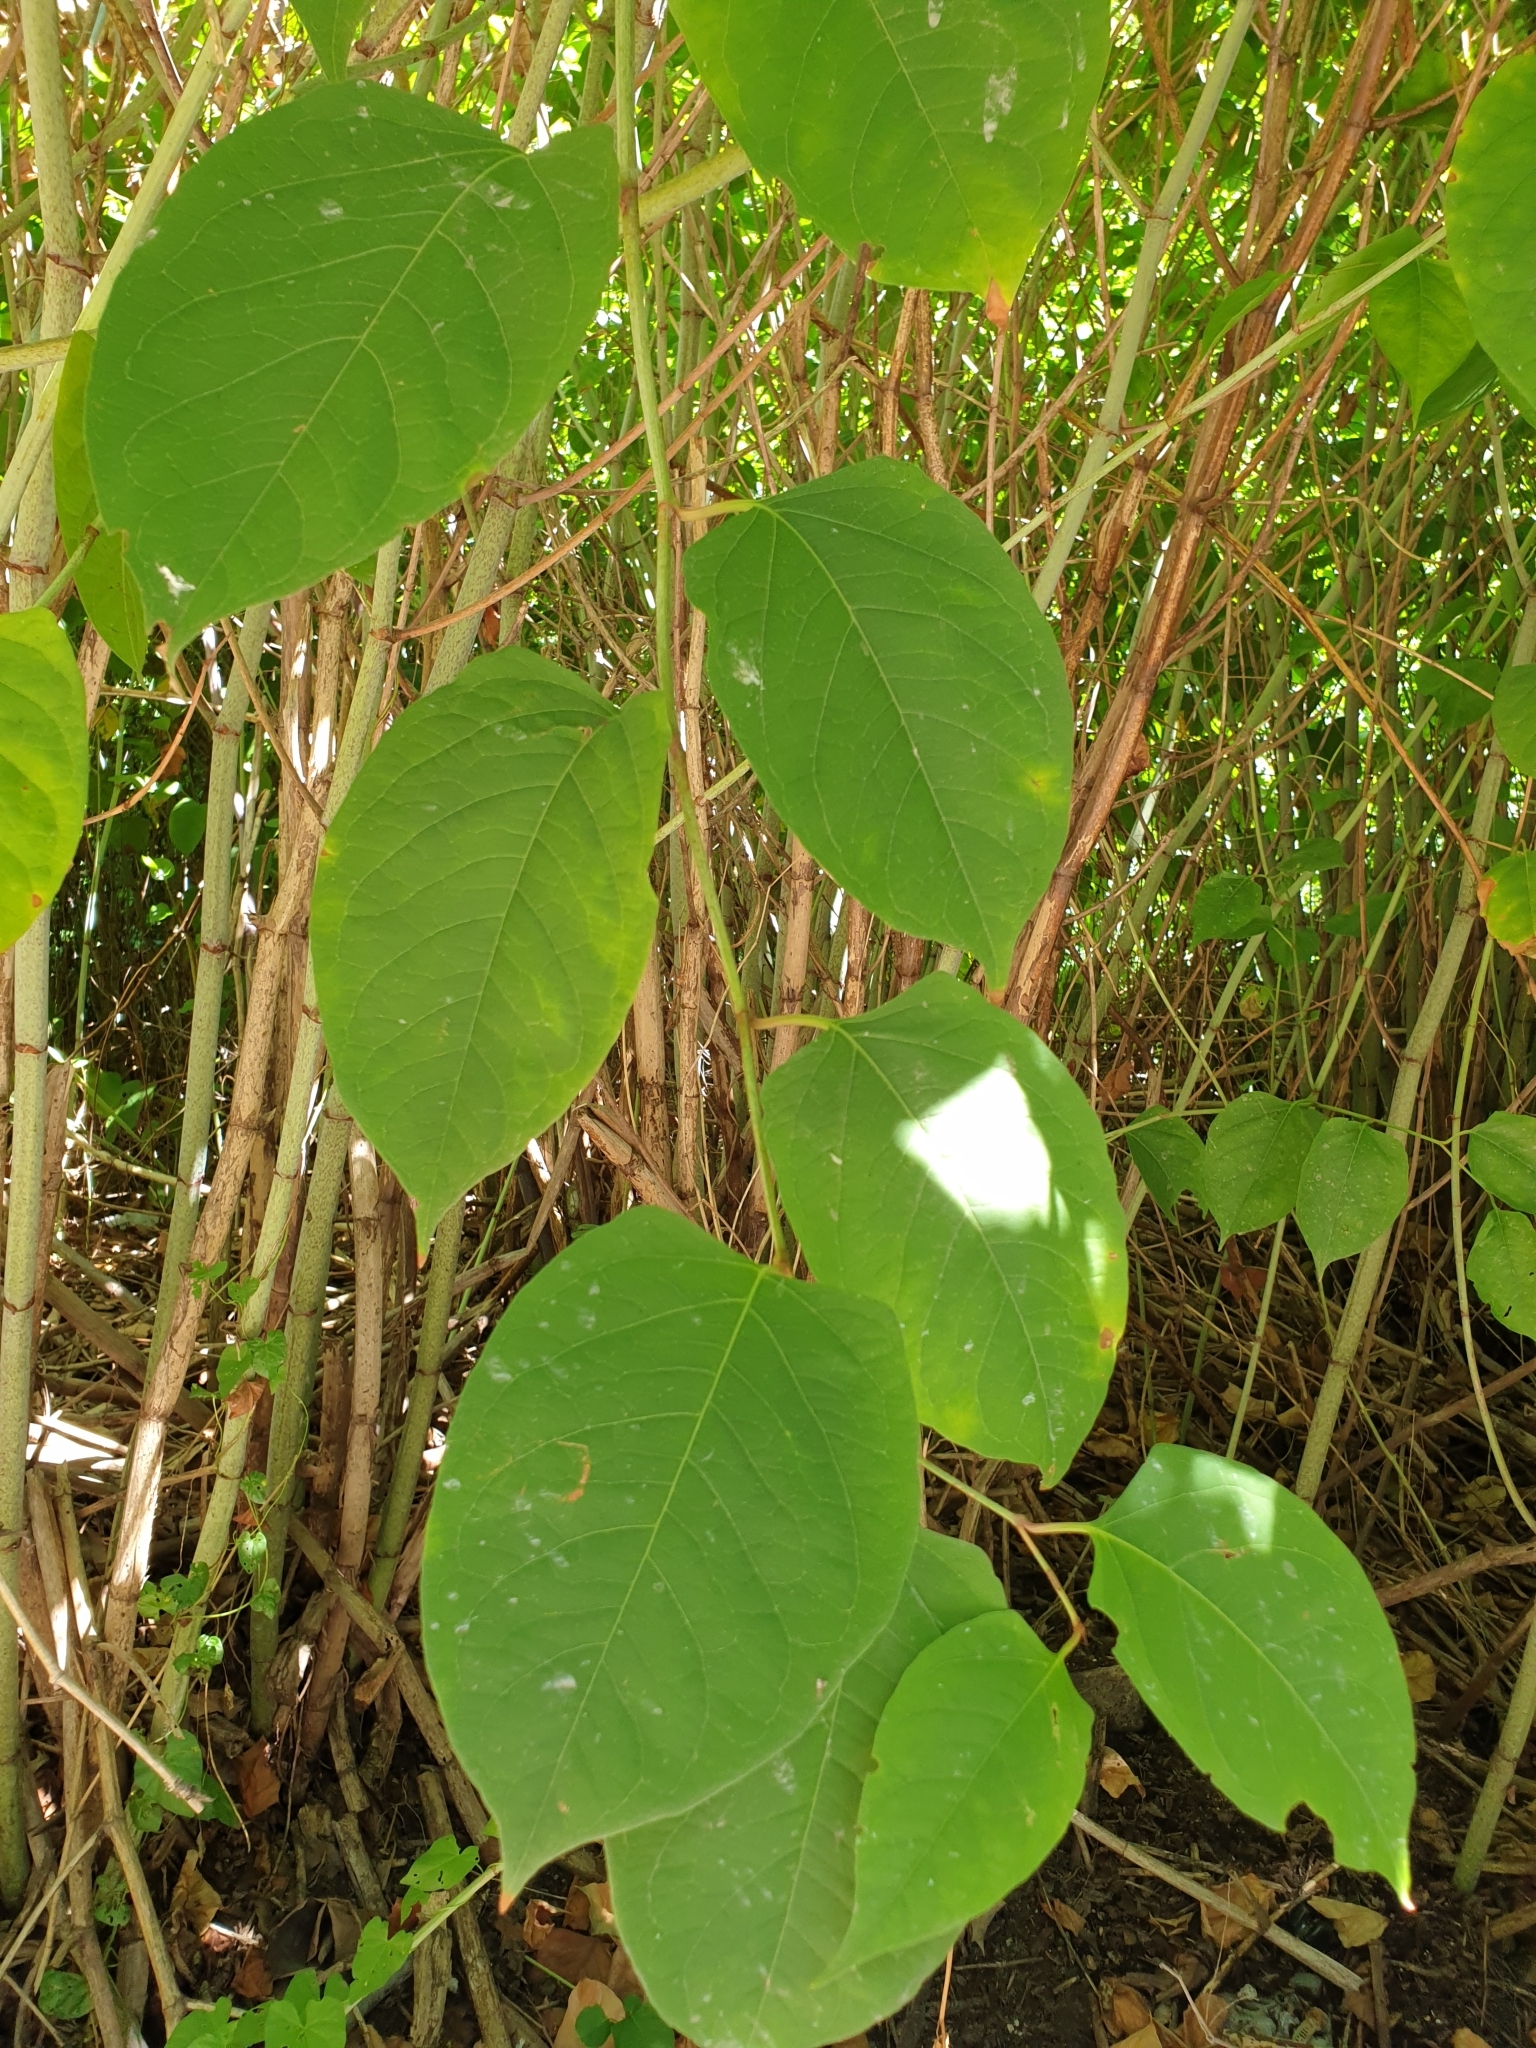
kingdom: Plantae
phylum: Tracheophyta
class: Magnoliopsida
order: Caryophyllales
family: Polygonaceae
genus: Reynoutria
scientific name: Reynoutria japonica
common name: Japanese knotweed
